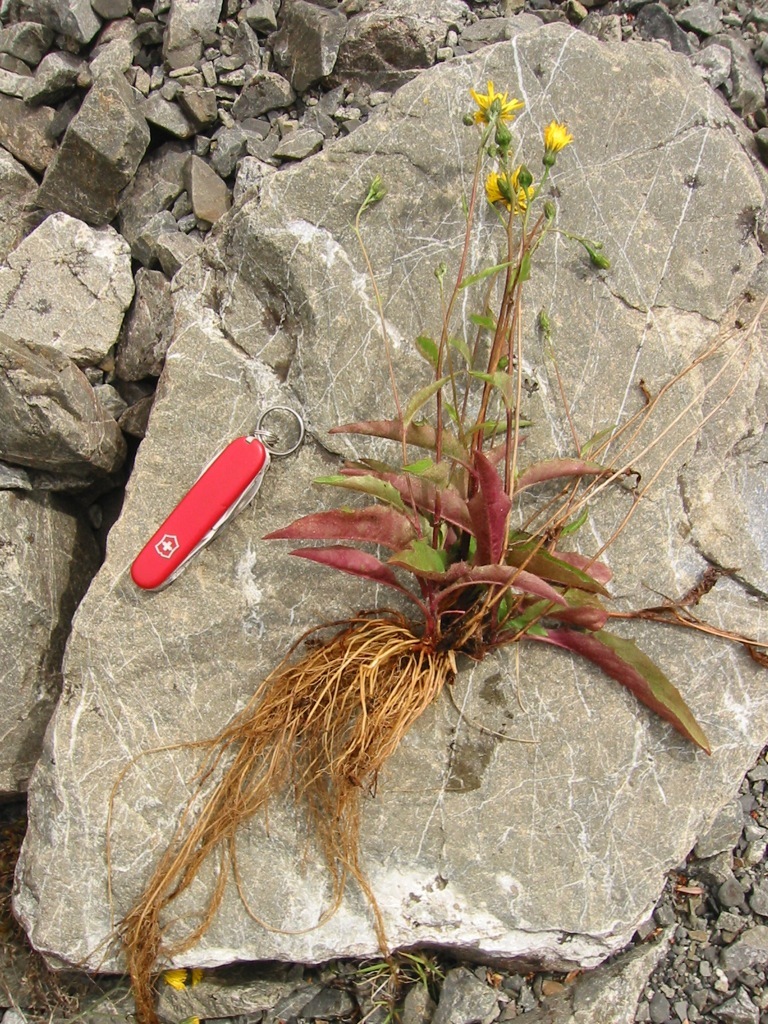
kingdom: Plantae
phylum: Tracheophyta
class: Magnoliopsida
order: Asterales
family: Asteraceae
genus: Hieracium
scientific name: Hieracium lepidulum
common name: Irregular-toothed hawkweed
